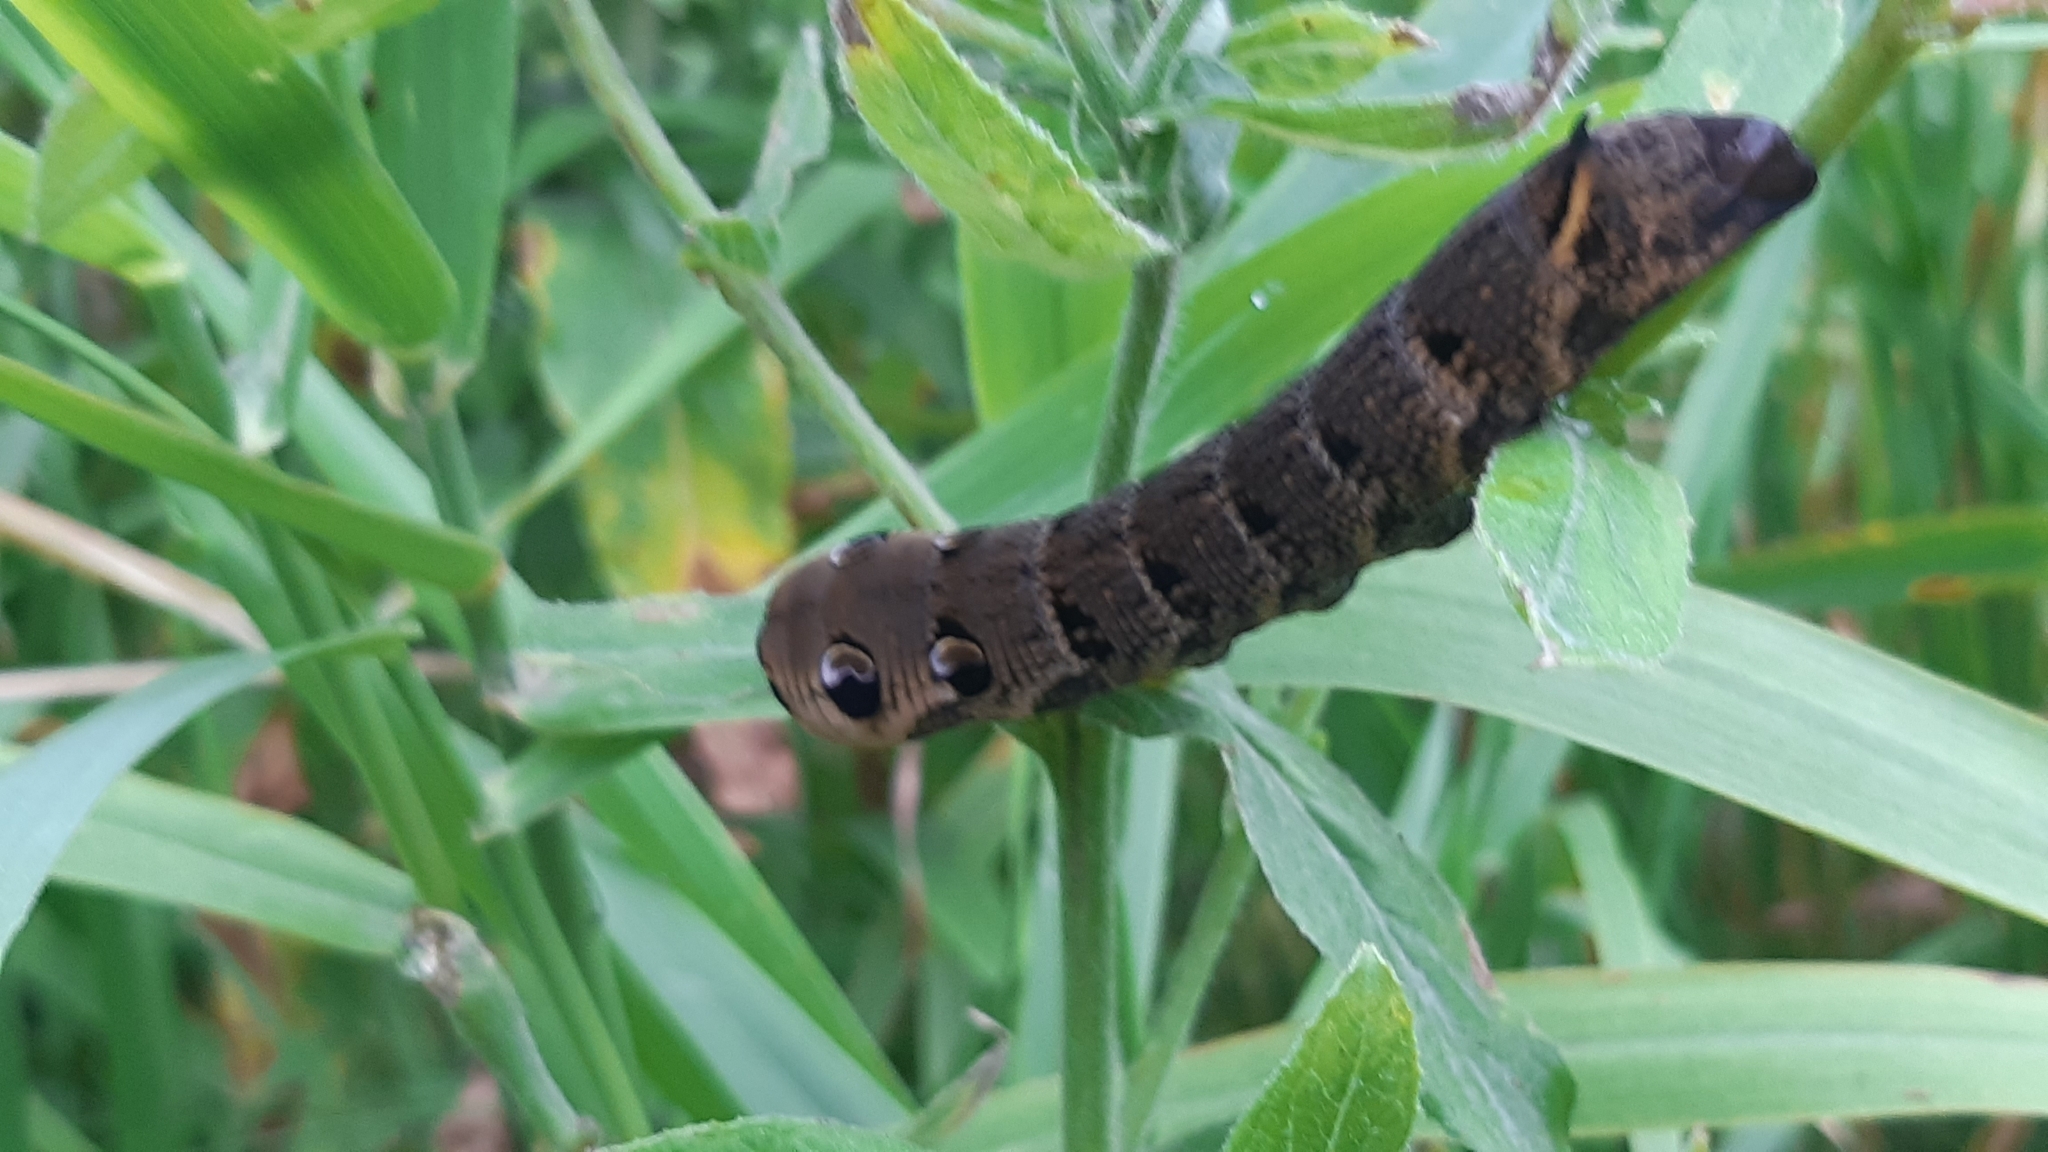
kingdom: Animalia
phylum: Arthropoda
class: Insecta
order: Lepidoptera
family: Sphingidae
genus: Deilephila
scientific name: Deilephila elpenor
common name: Elephant hawk-moth
